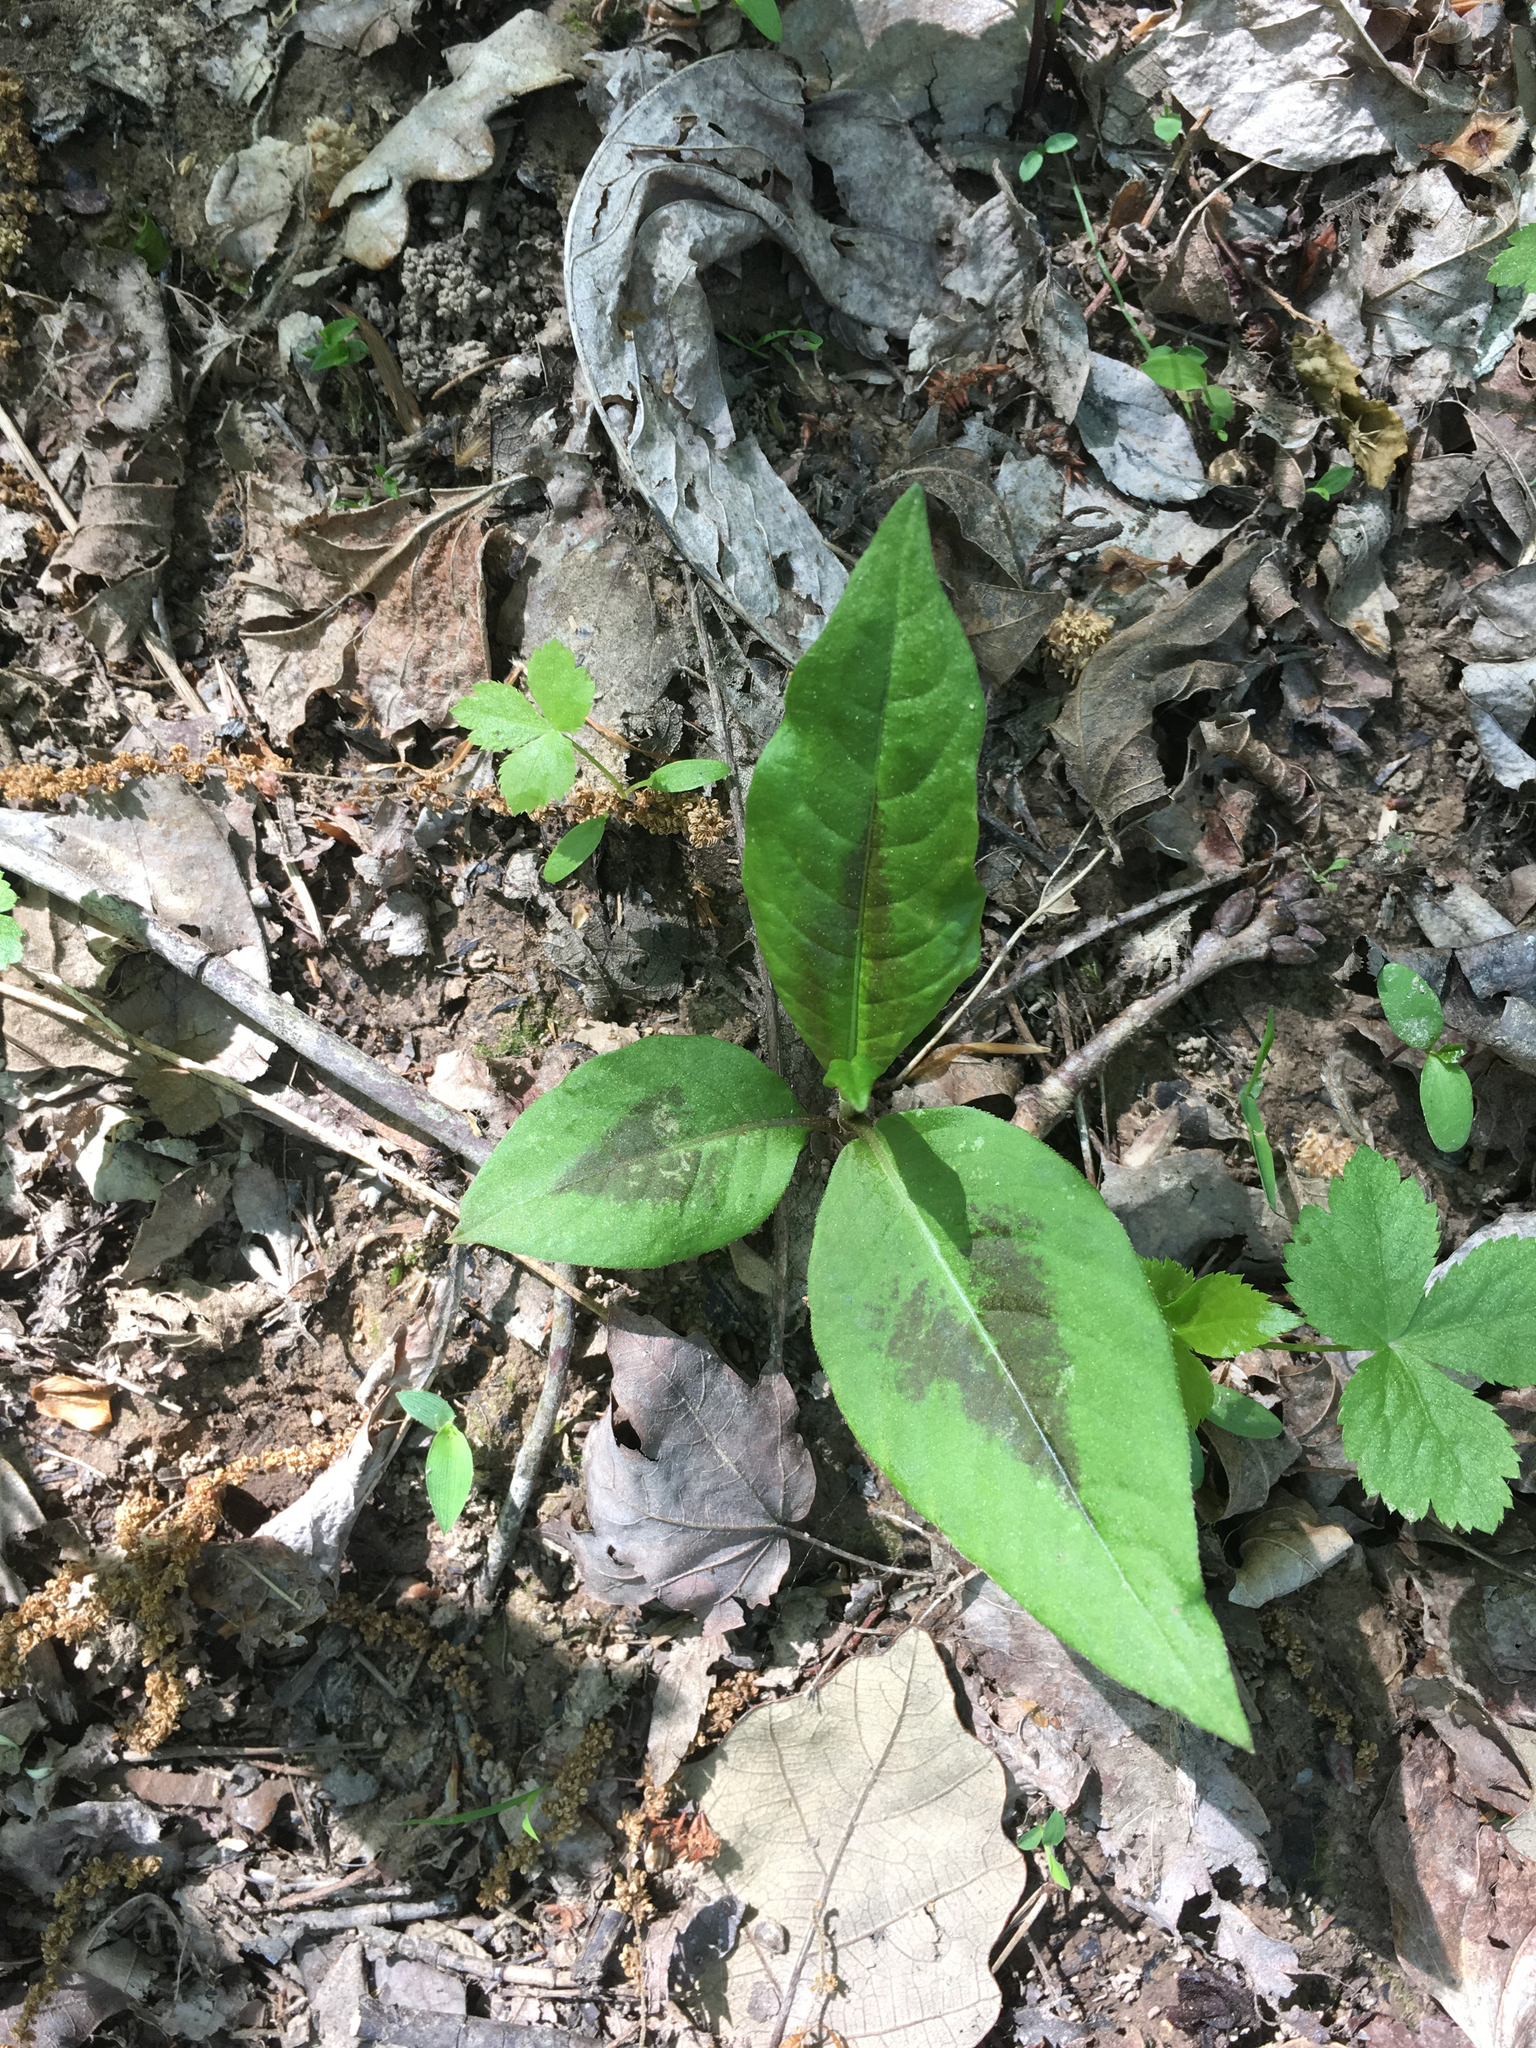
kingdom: Plantae
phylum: Tracheophyta
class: Magnoliopsida
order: Caryophyllales
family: Polygonaceae
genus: Persicaria
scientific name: Persicaria virginiana
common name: Jumpseed
